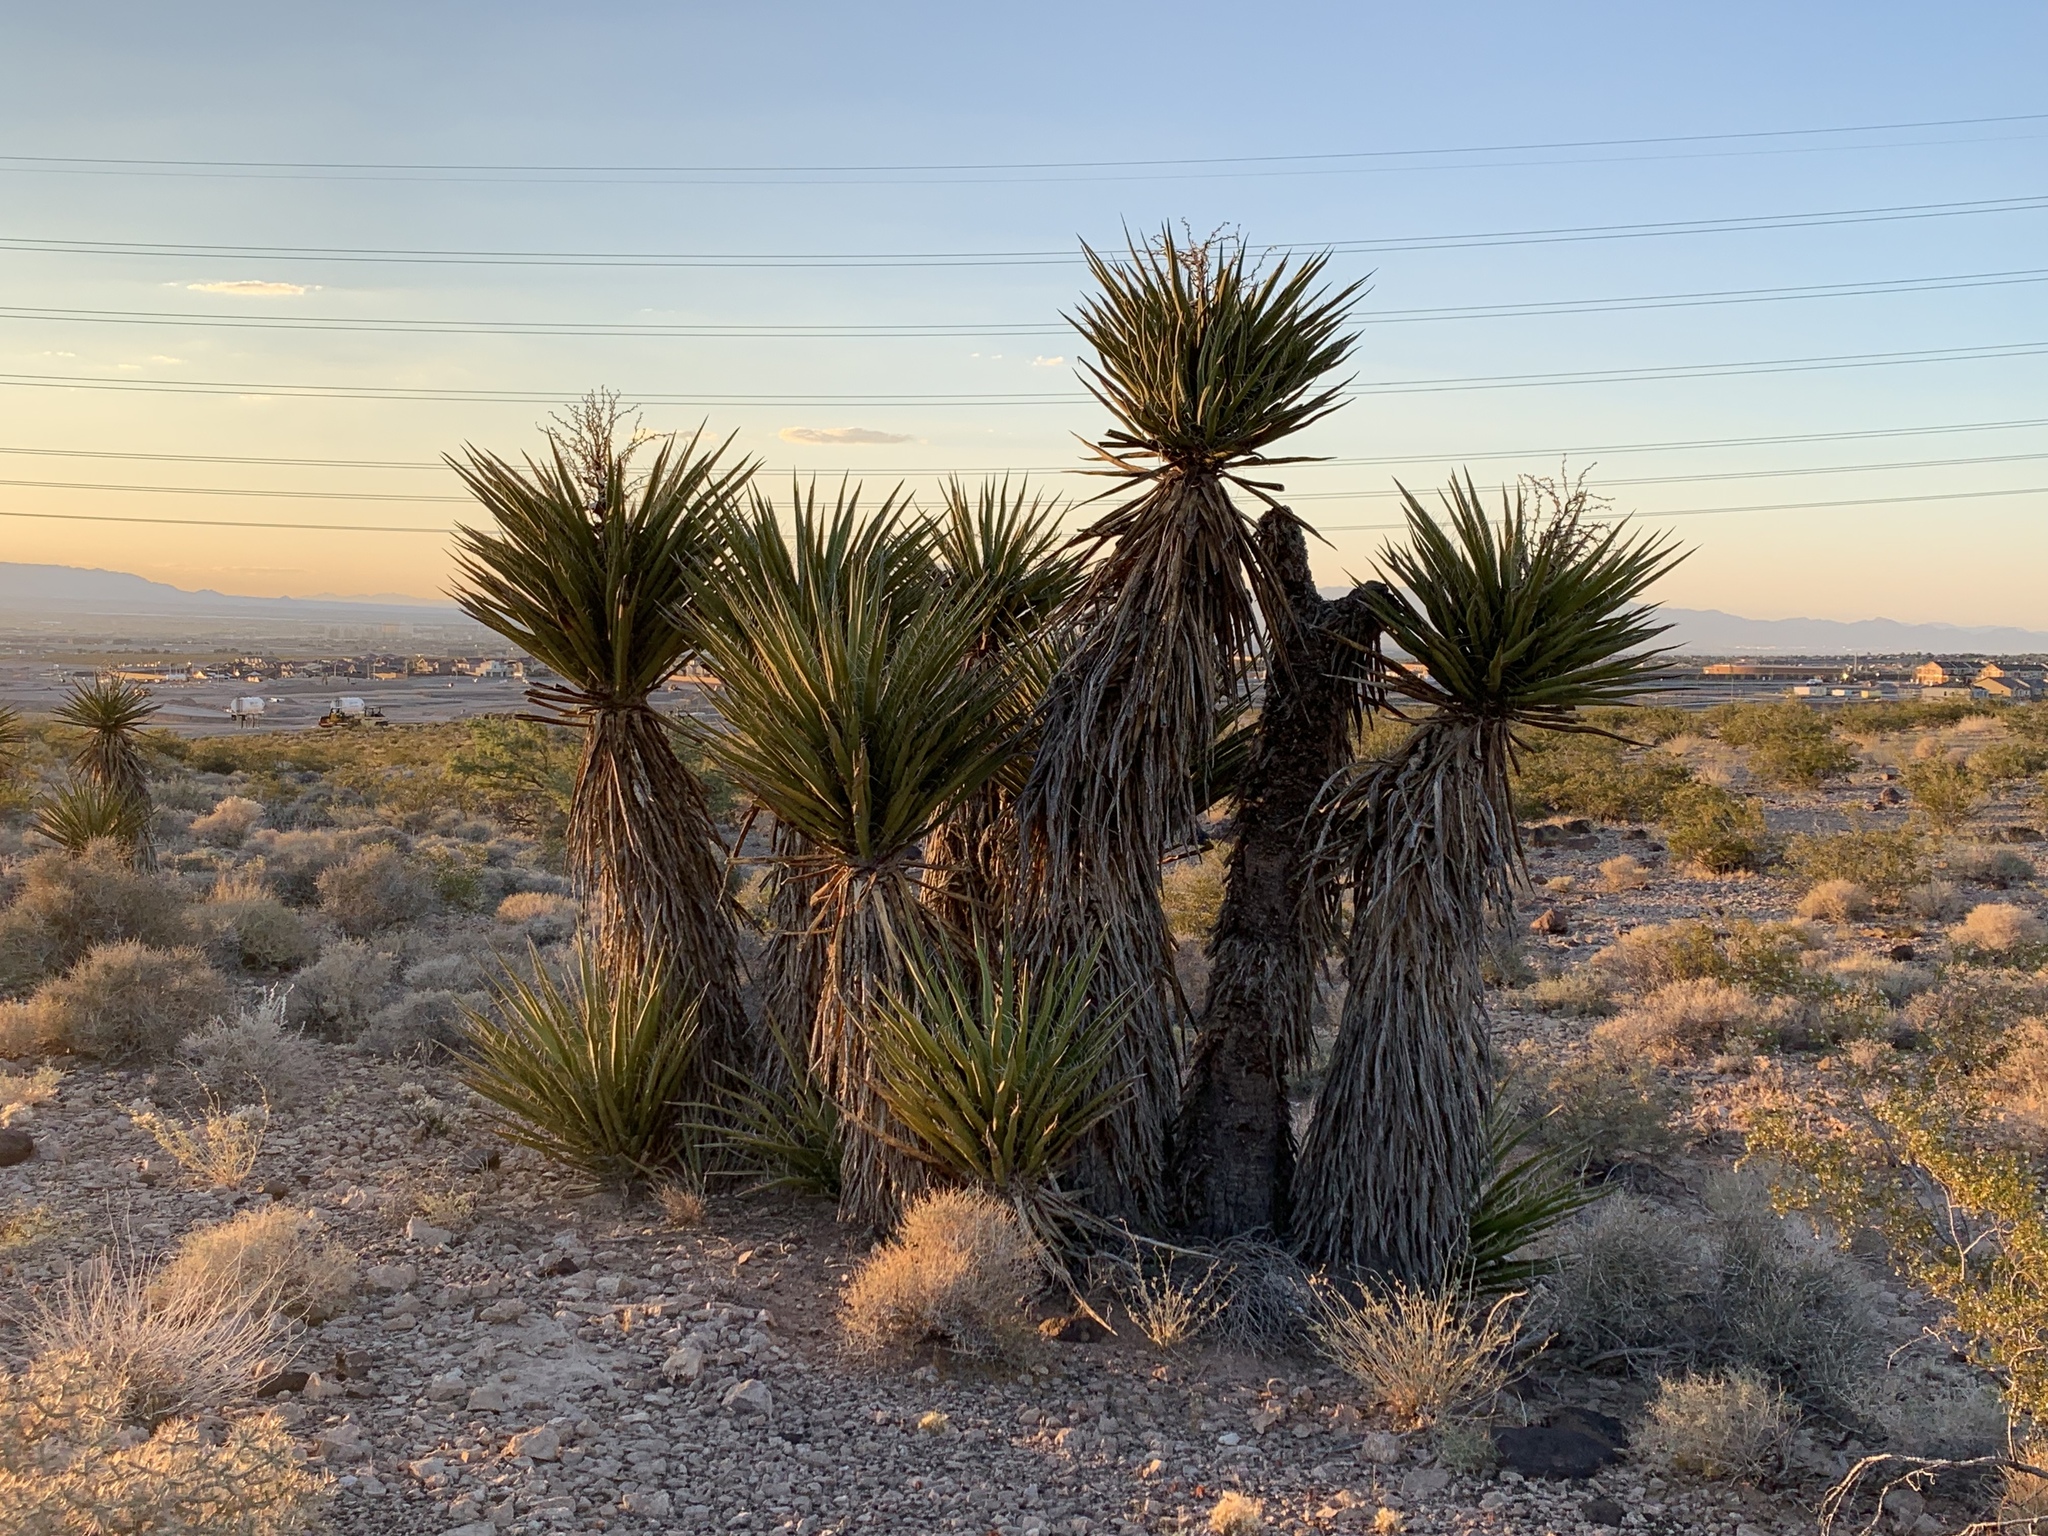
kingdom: Plantae
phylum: Tracheophyta
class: Liliopsida
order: Asparagales
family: Asparagaceae
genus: Yucca
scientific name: Yucca schidigera
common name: Mojave yucca
